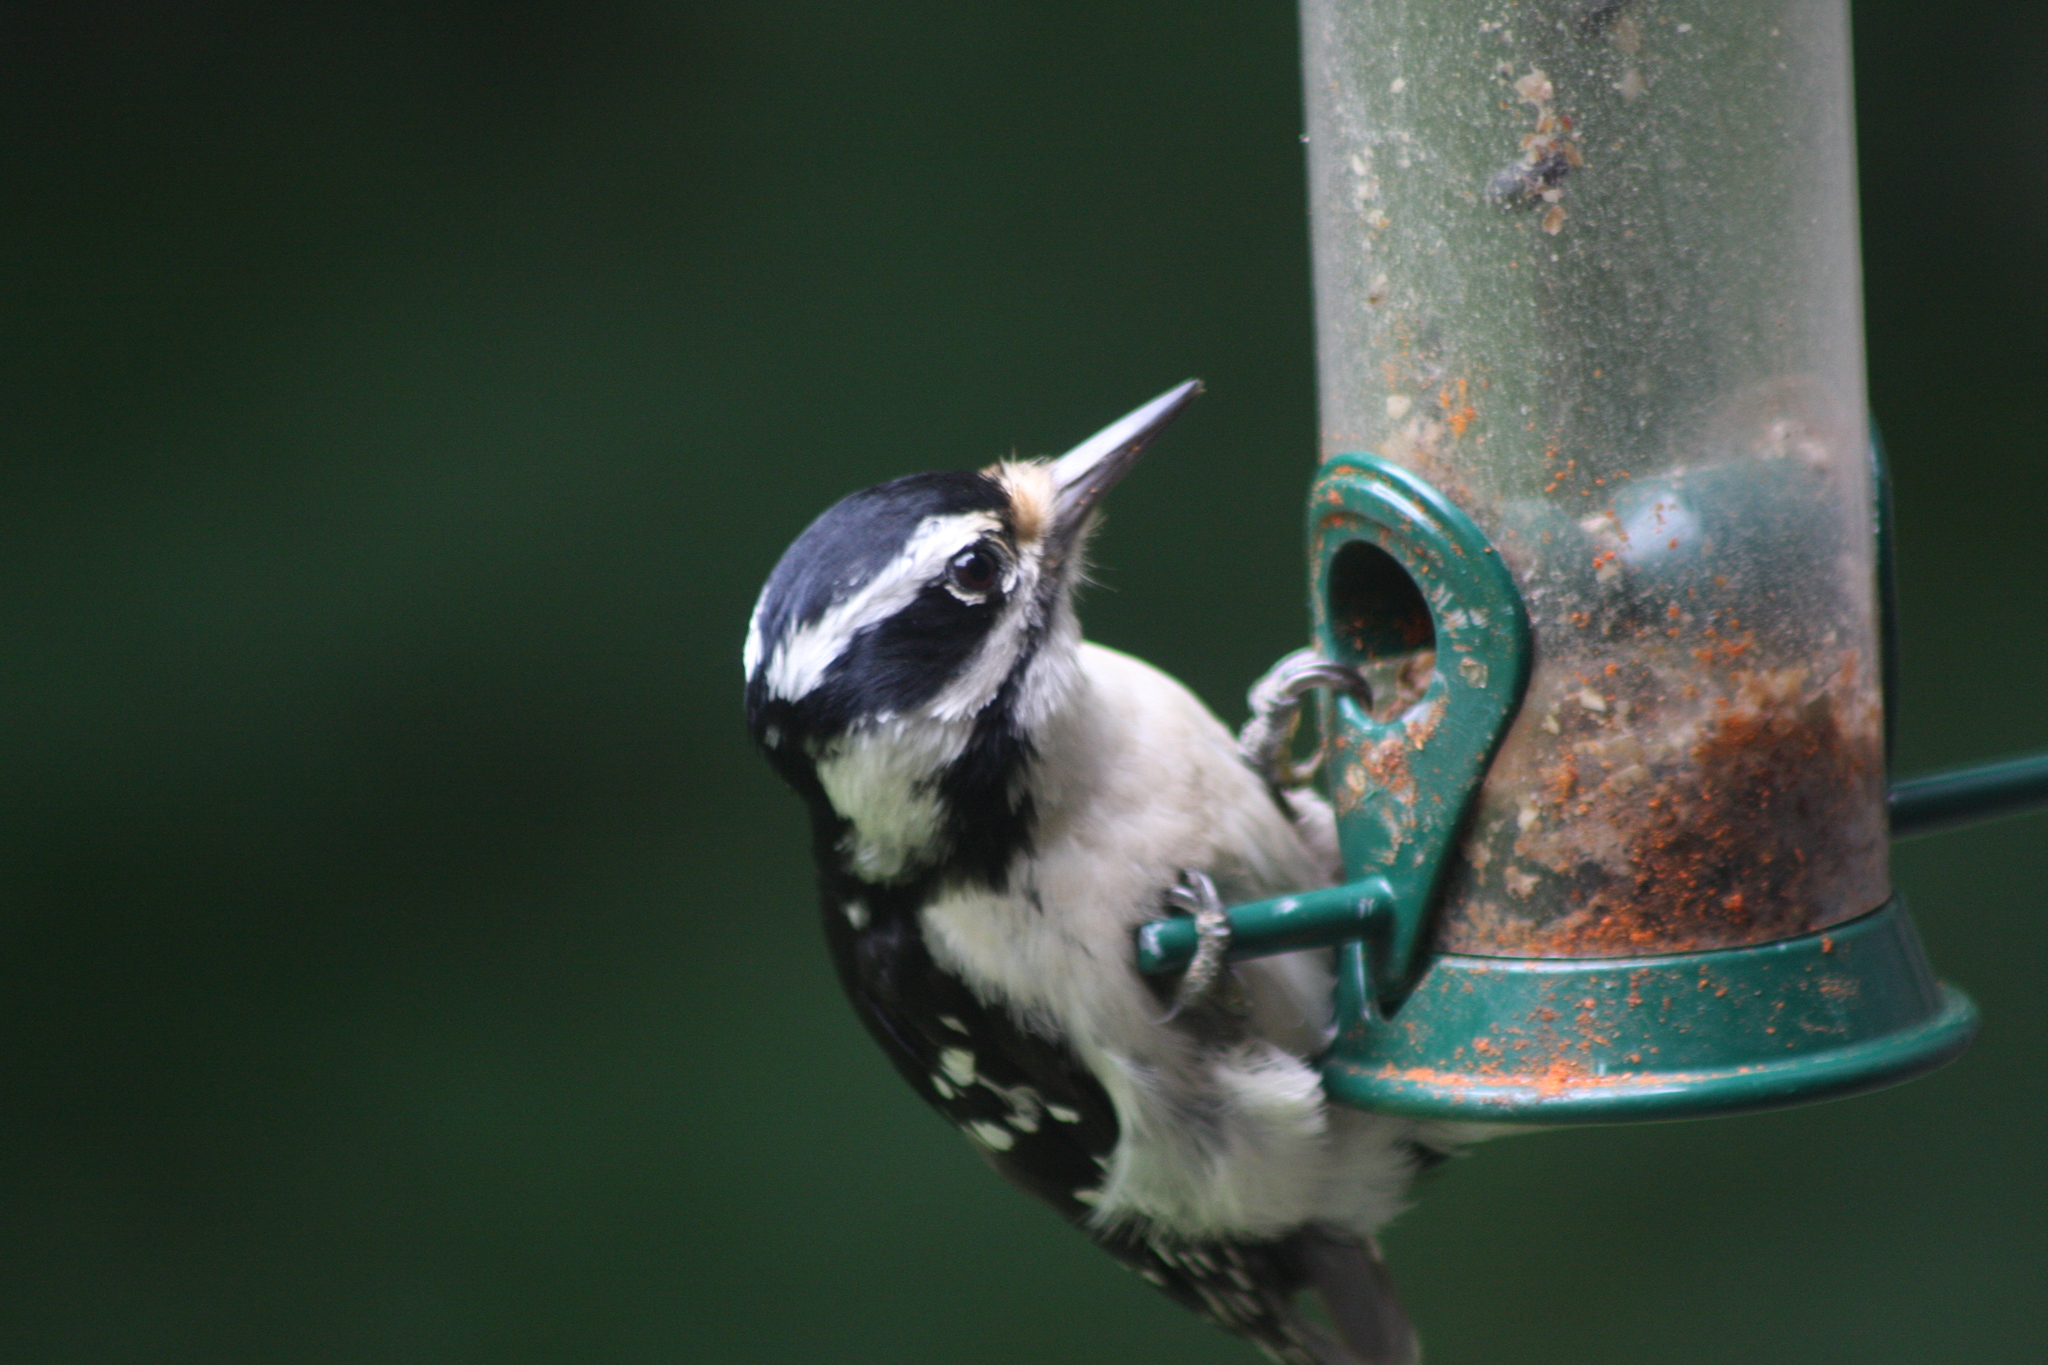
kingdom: Animalia
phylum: Chordata
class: Aves
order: Piciformes
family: Picidae
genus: Leuconotopicus
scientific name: Leuconotopicus villosus
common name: Hairy woodpecker
